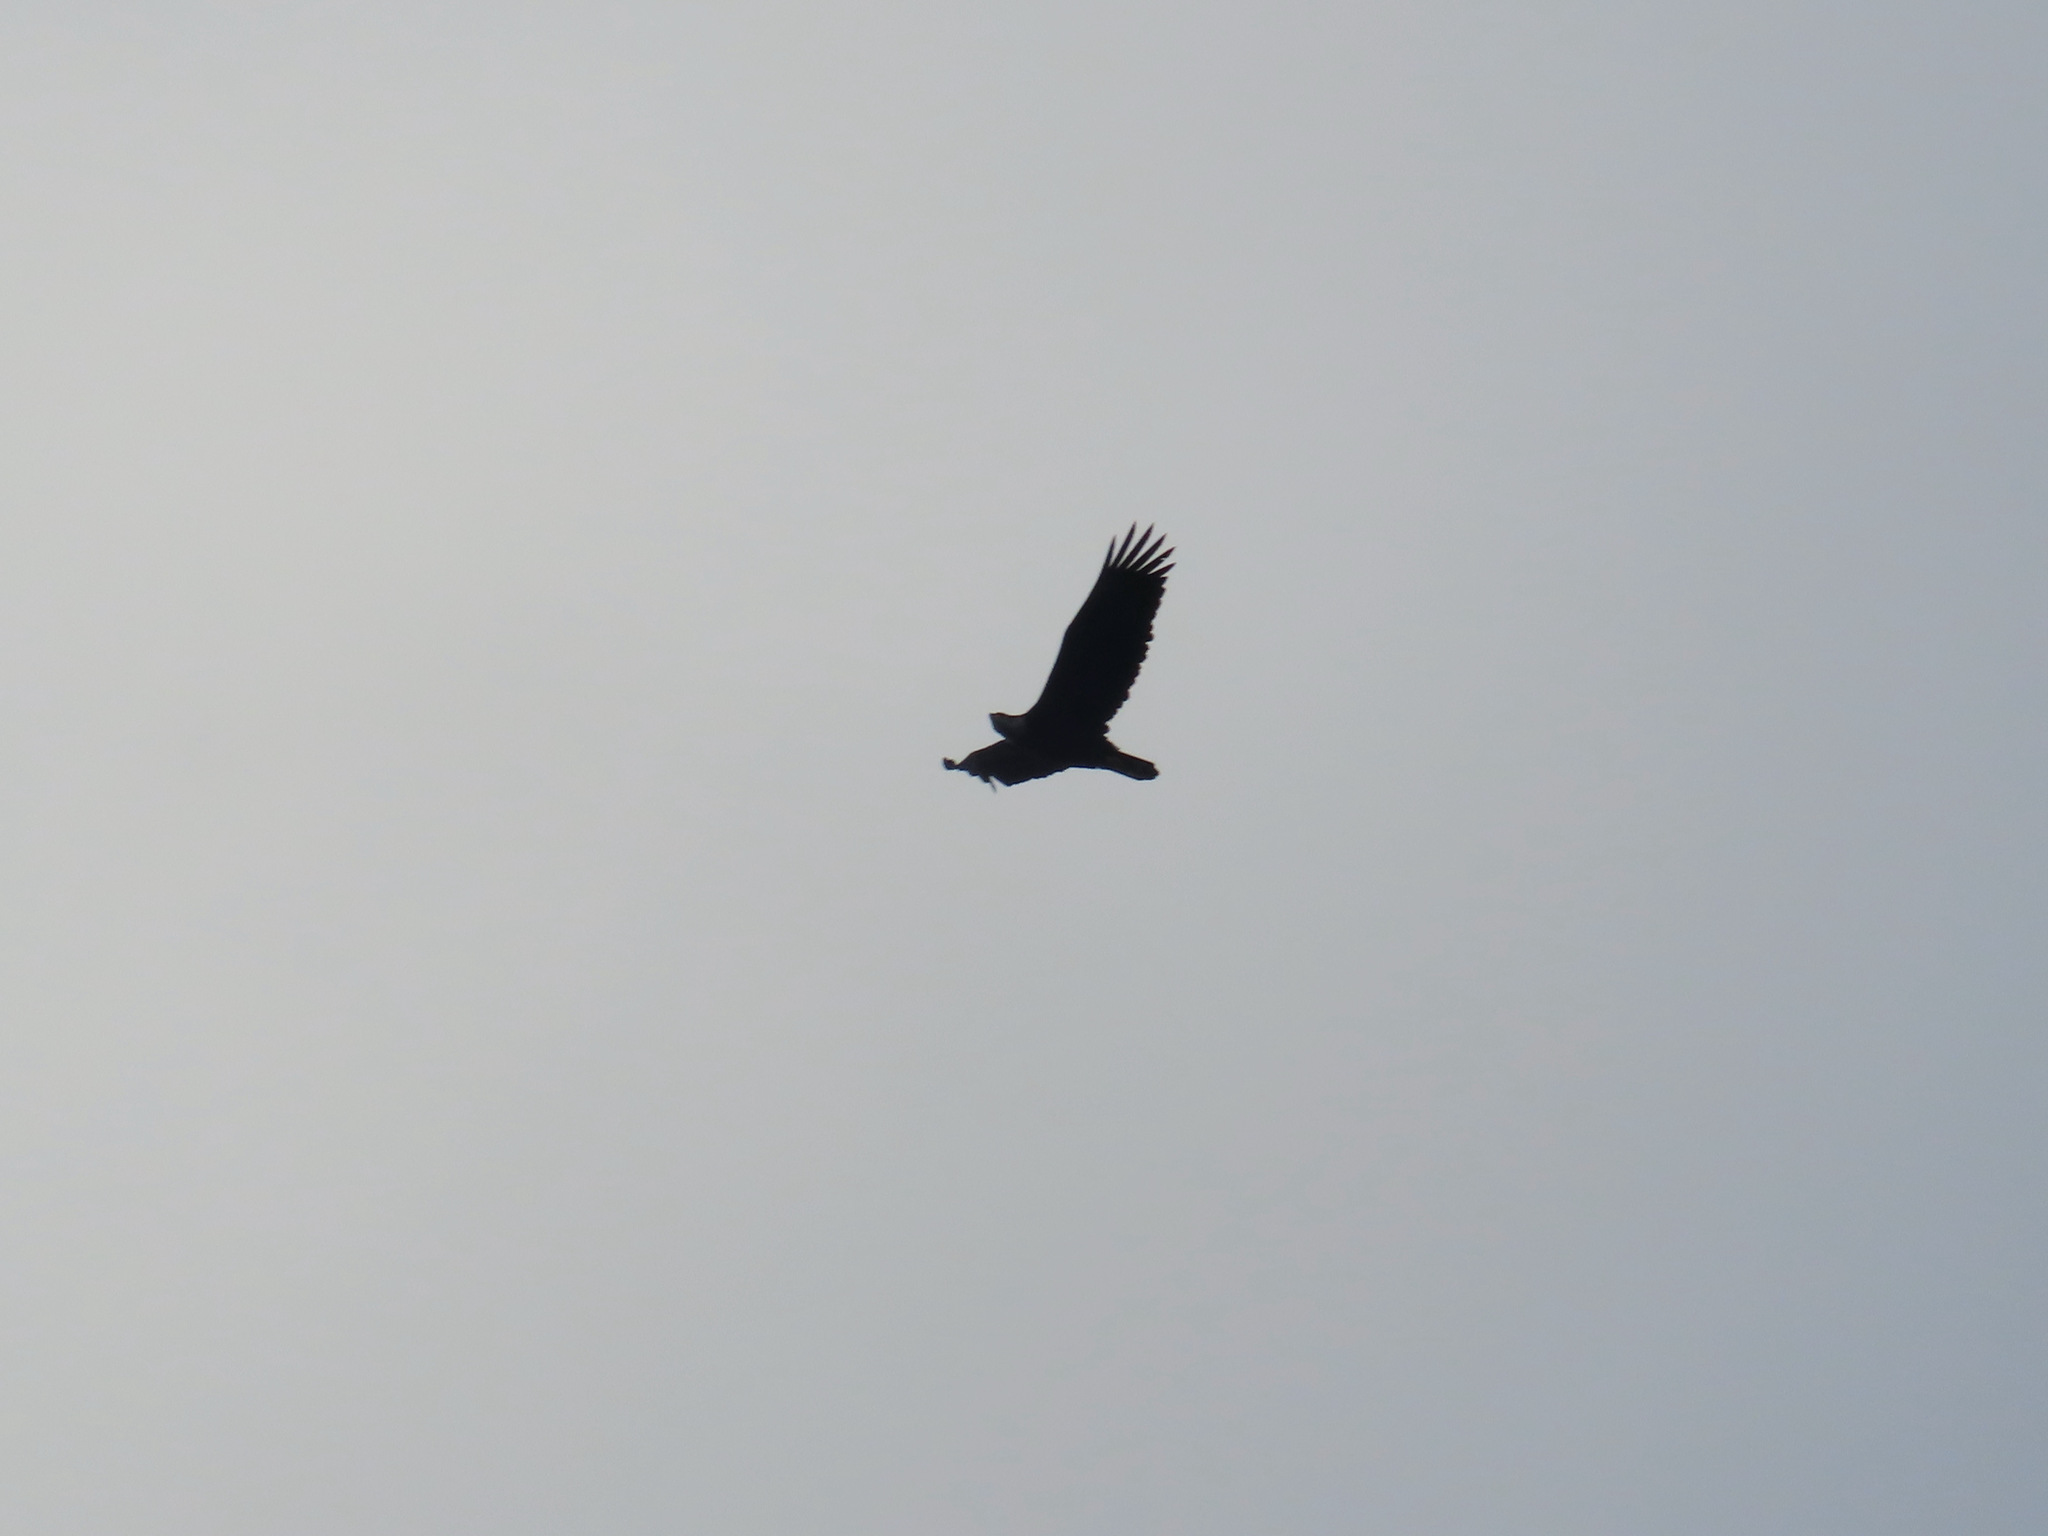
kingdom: Animalia
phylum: Chordata
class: Aves
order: Accipitriformes
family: Accipitridae
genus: Haliaeetus
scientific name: Haliaeetus leucocephalus
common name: Bald eagle
